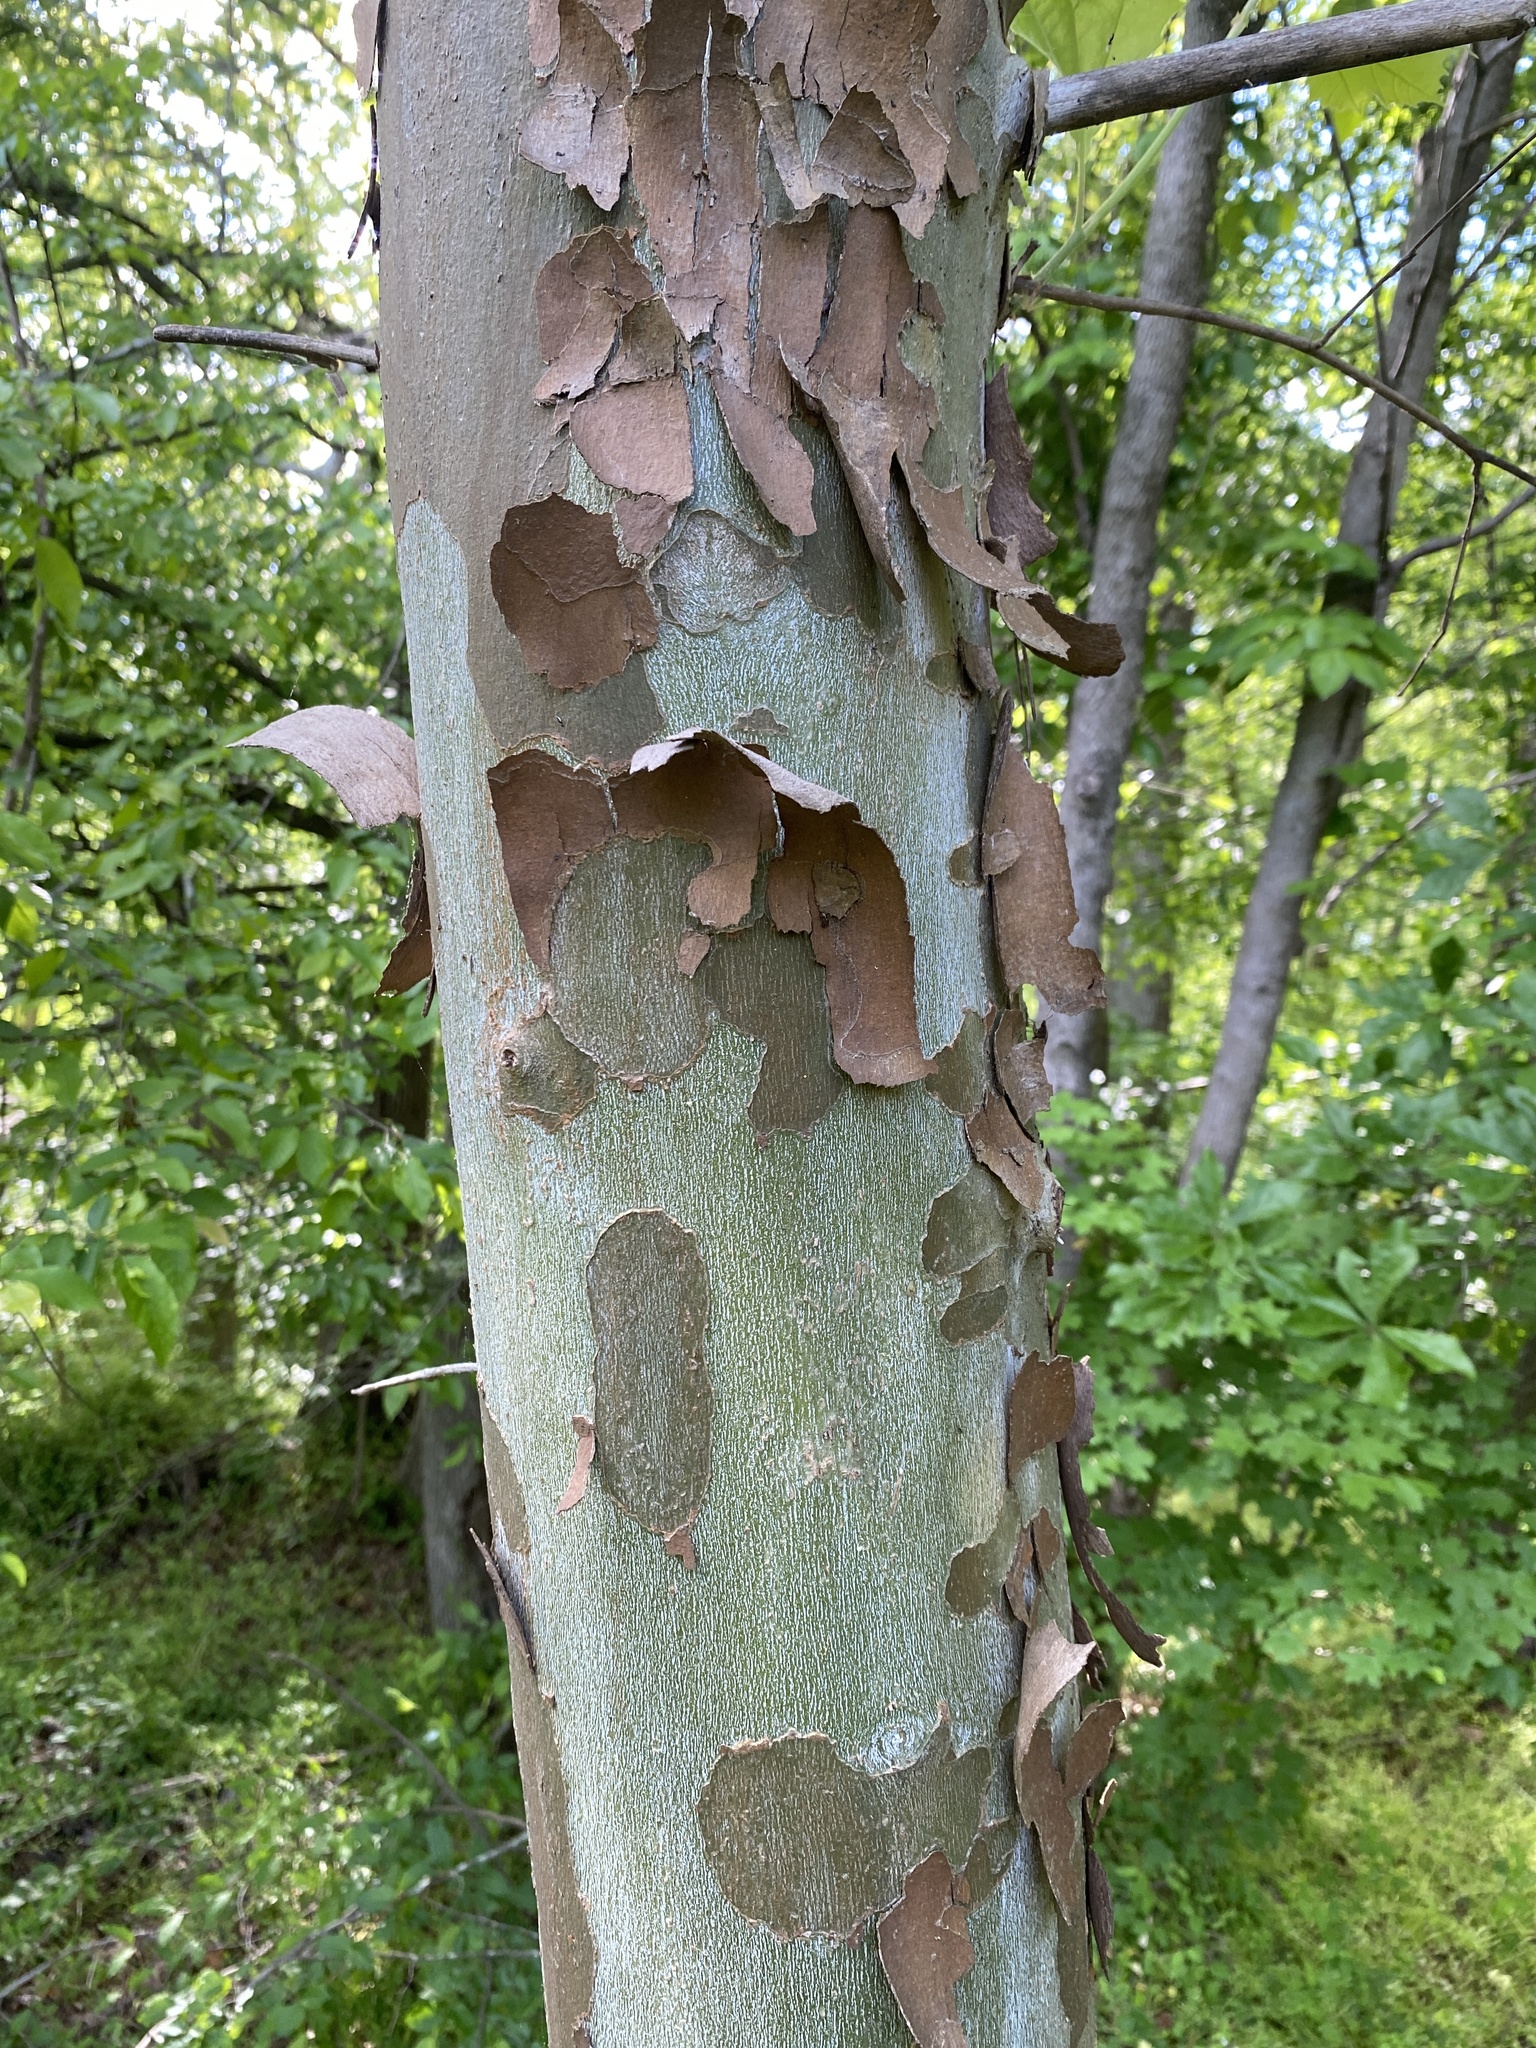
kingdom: Plantae
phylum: Tracheophyta
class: Magnoliopsida
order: Proteales
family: Platanaceae
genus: Platanus
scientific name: Platanus occidentalis
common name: American sycamore
